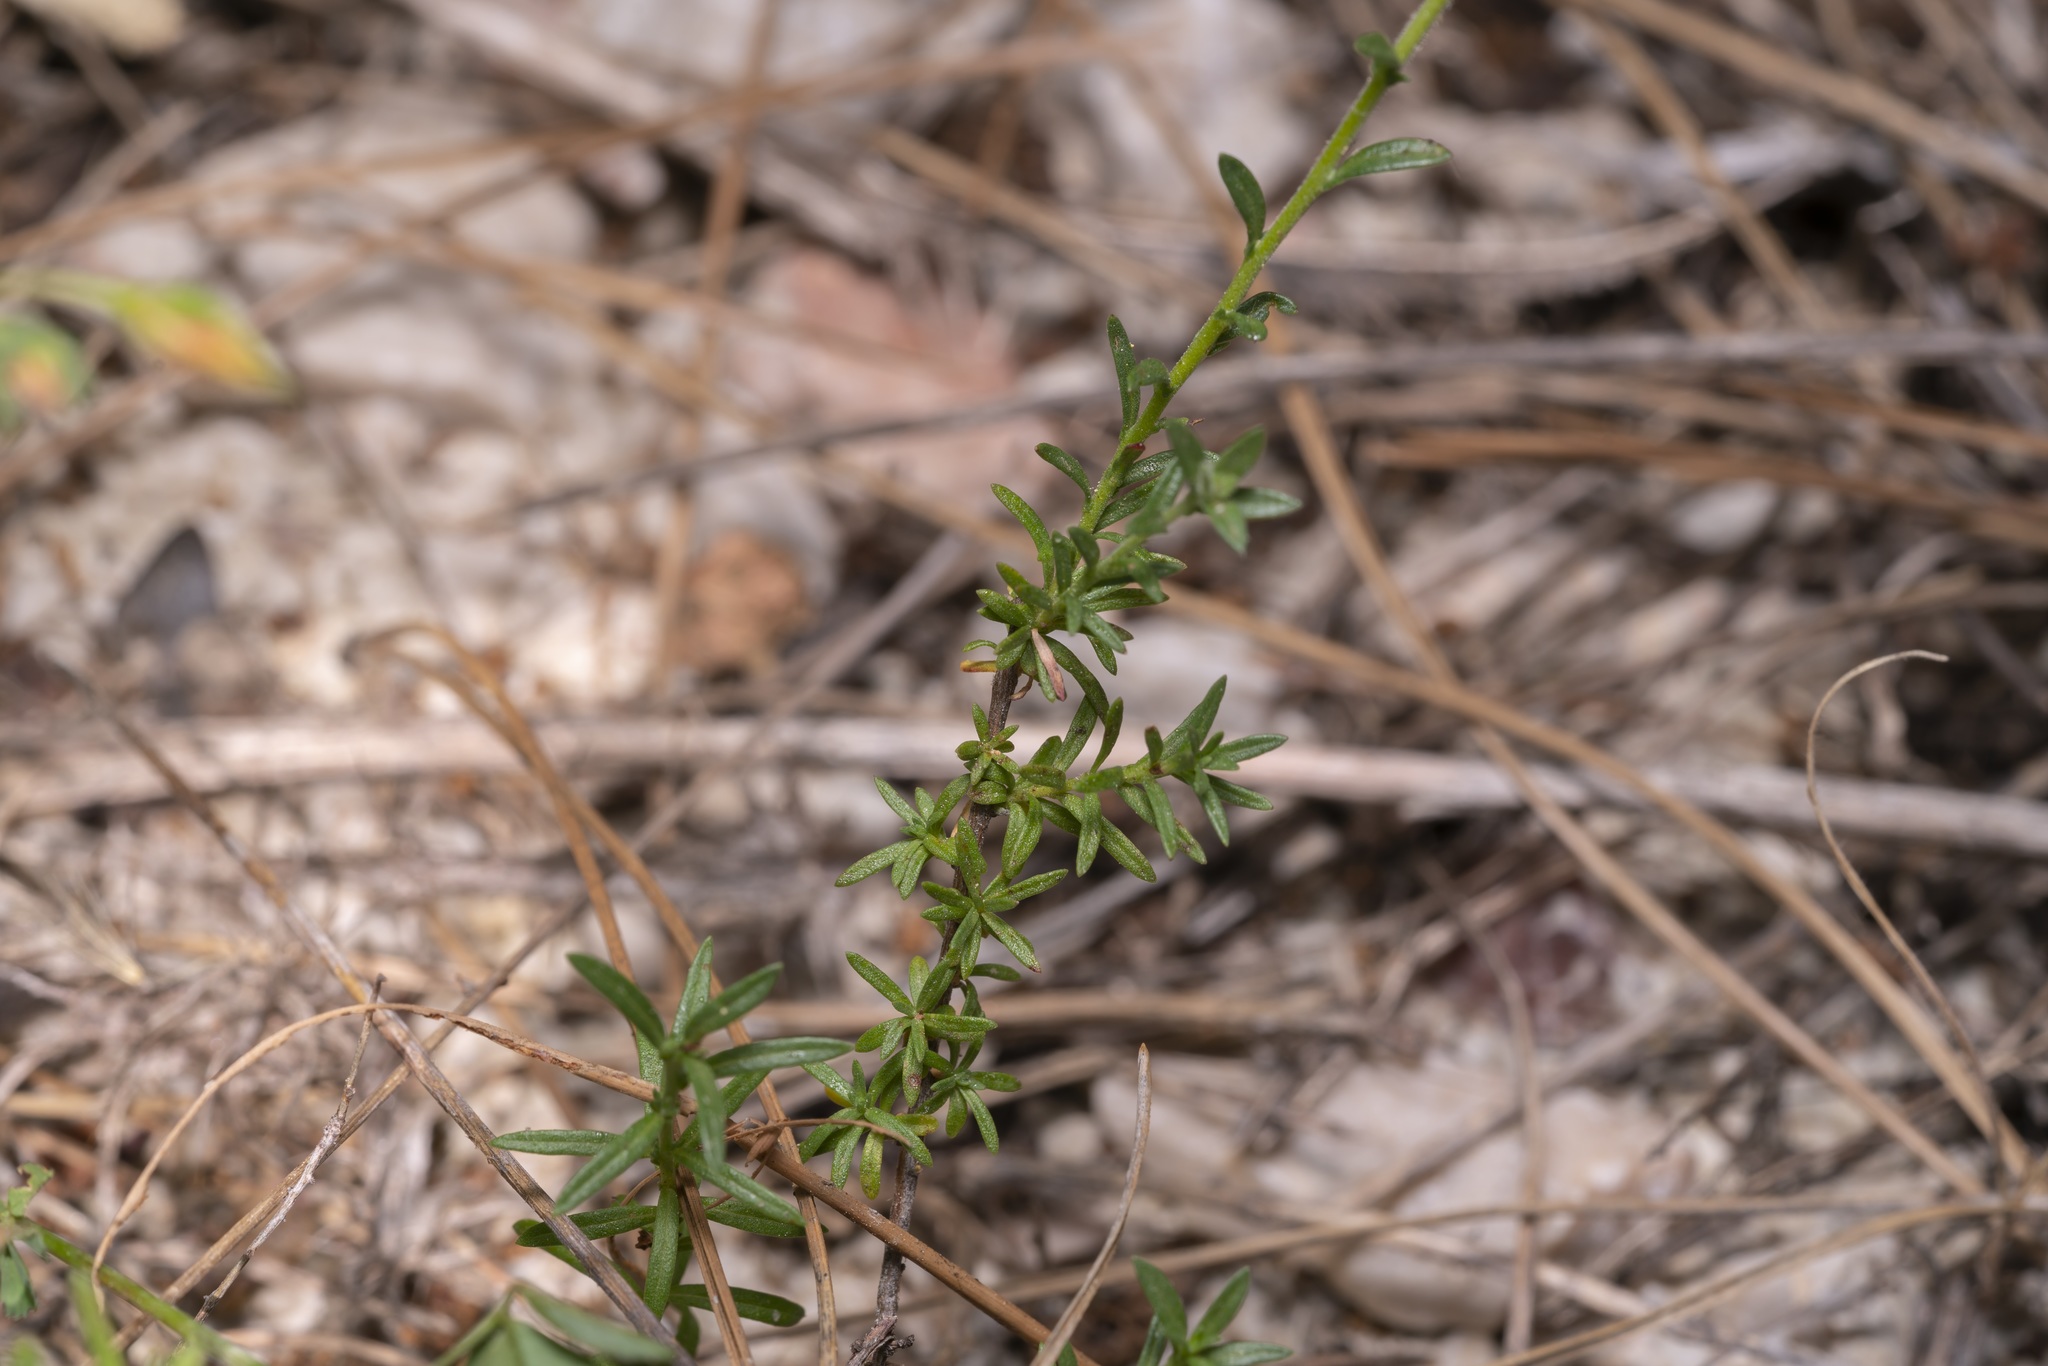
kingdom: Plantae
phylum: Tracheophyta
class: Magnoliopsida
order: Malvales
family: Cistaceae
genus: Fumana
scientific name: Fumana arabica
